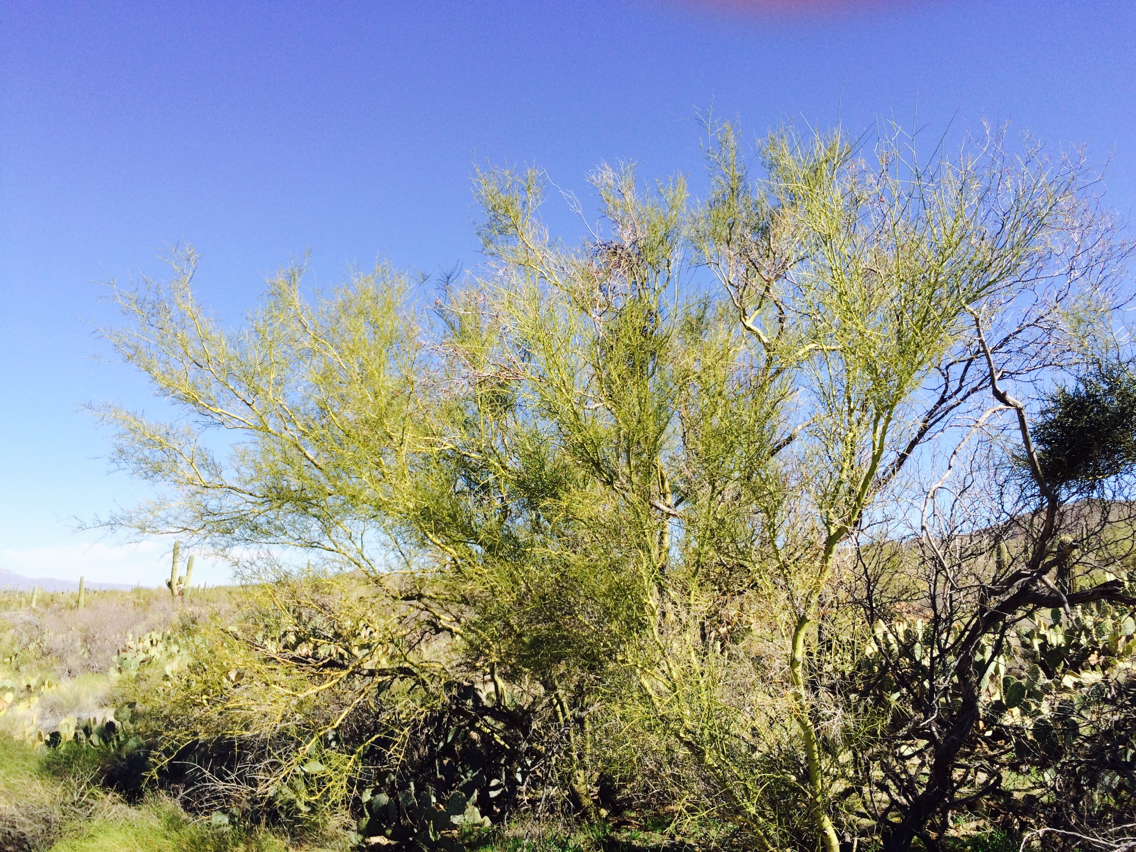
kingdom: Plantae
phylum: Tracheophyta
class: Magnoliopsida
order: Fabales
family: Fabaceae
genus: Parkinsonia
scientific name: Parkinsonia microphylla
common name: Yellow paloverde
